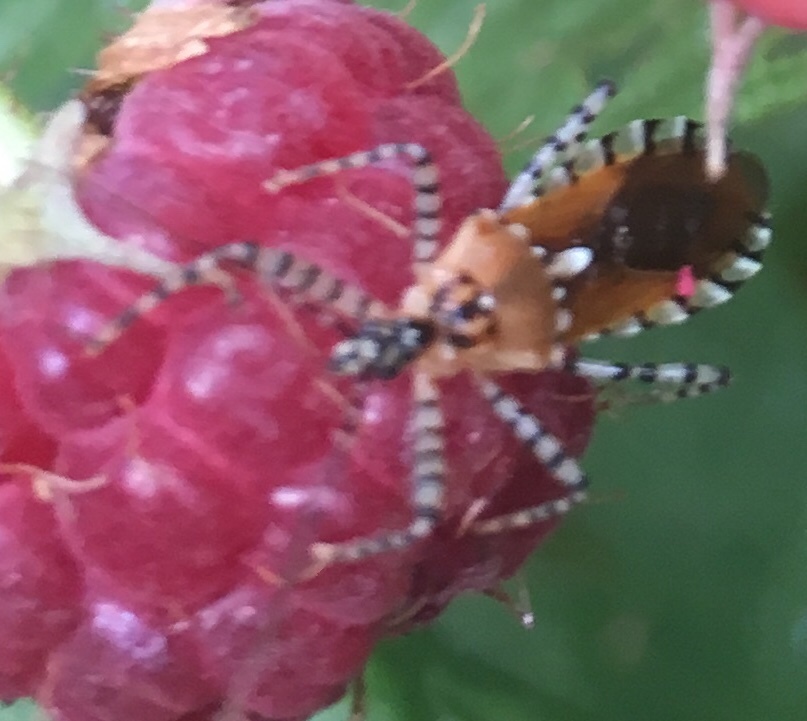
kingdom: Animalia
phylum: Arthropoda
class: Insecta
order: Hemiptera
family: Reduviidae
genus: Pselliopus
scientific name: Pselliopus cinctus
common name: Ringed assassin bug
